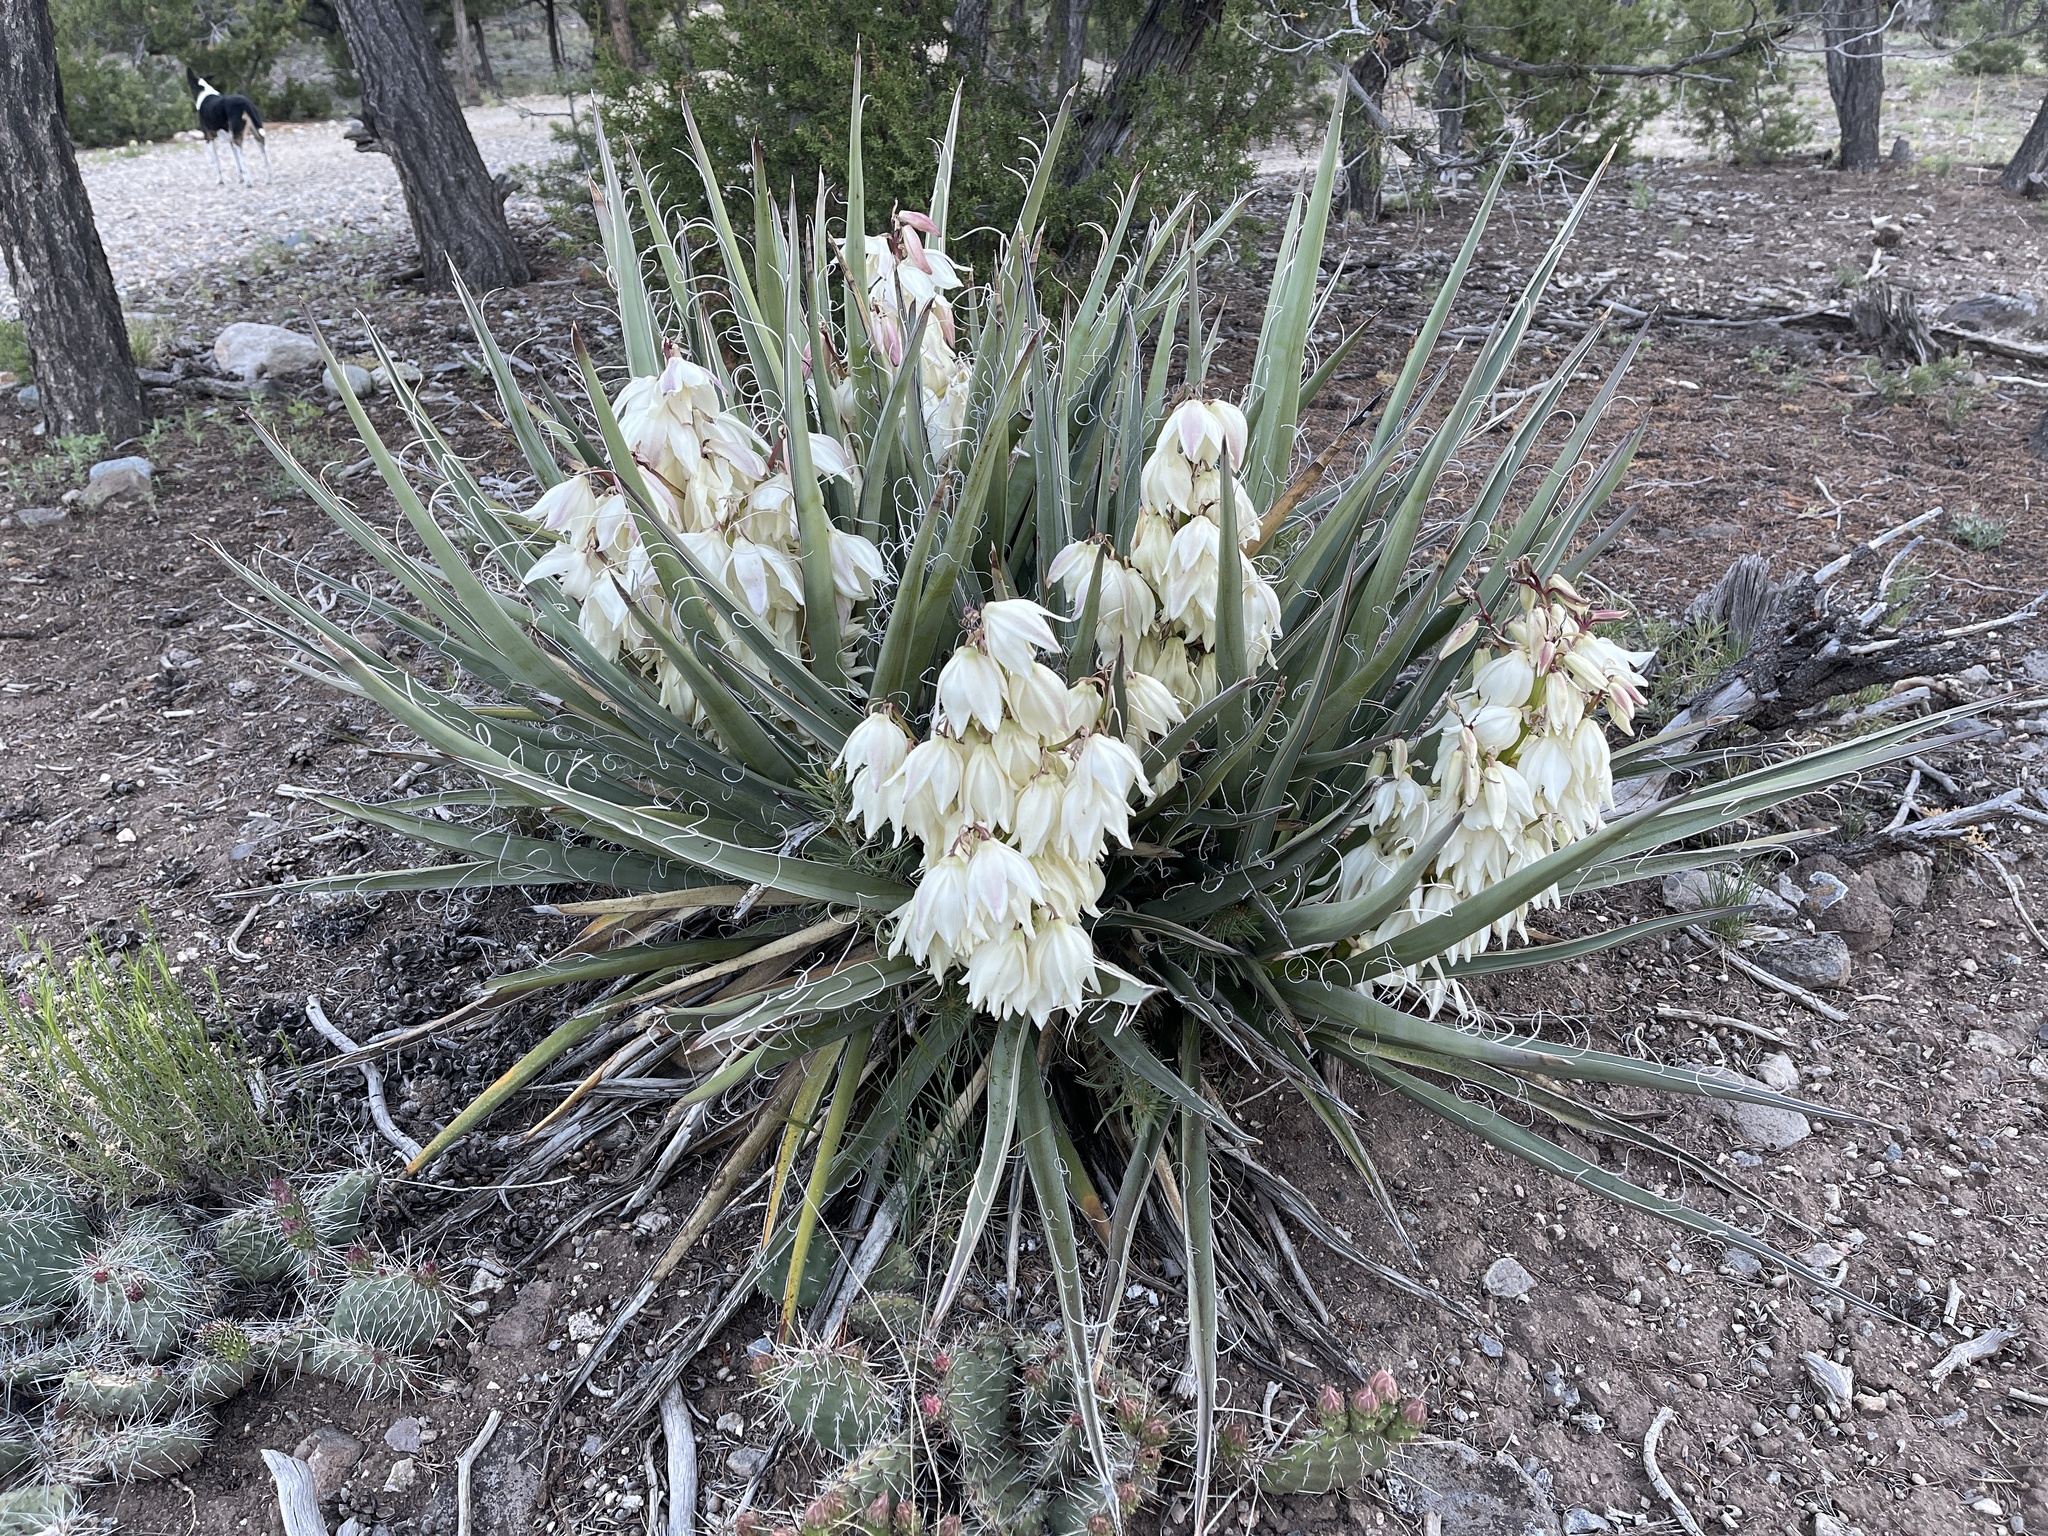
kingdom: Plantae
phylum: Tracheophyta
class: Liliopsida
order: Asparagales
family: Asparagaceae
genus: Yucca
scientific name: Yucca baccata
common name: Banana yucca
